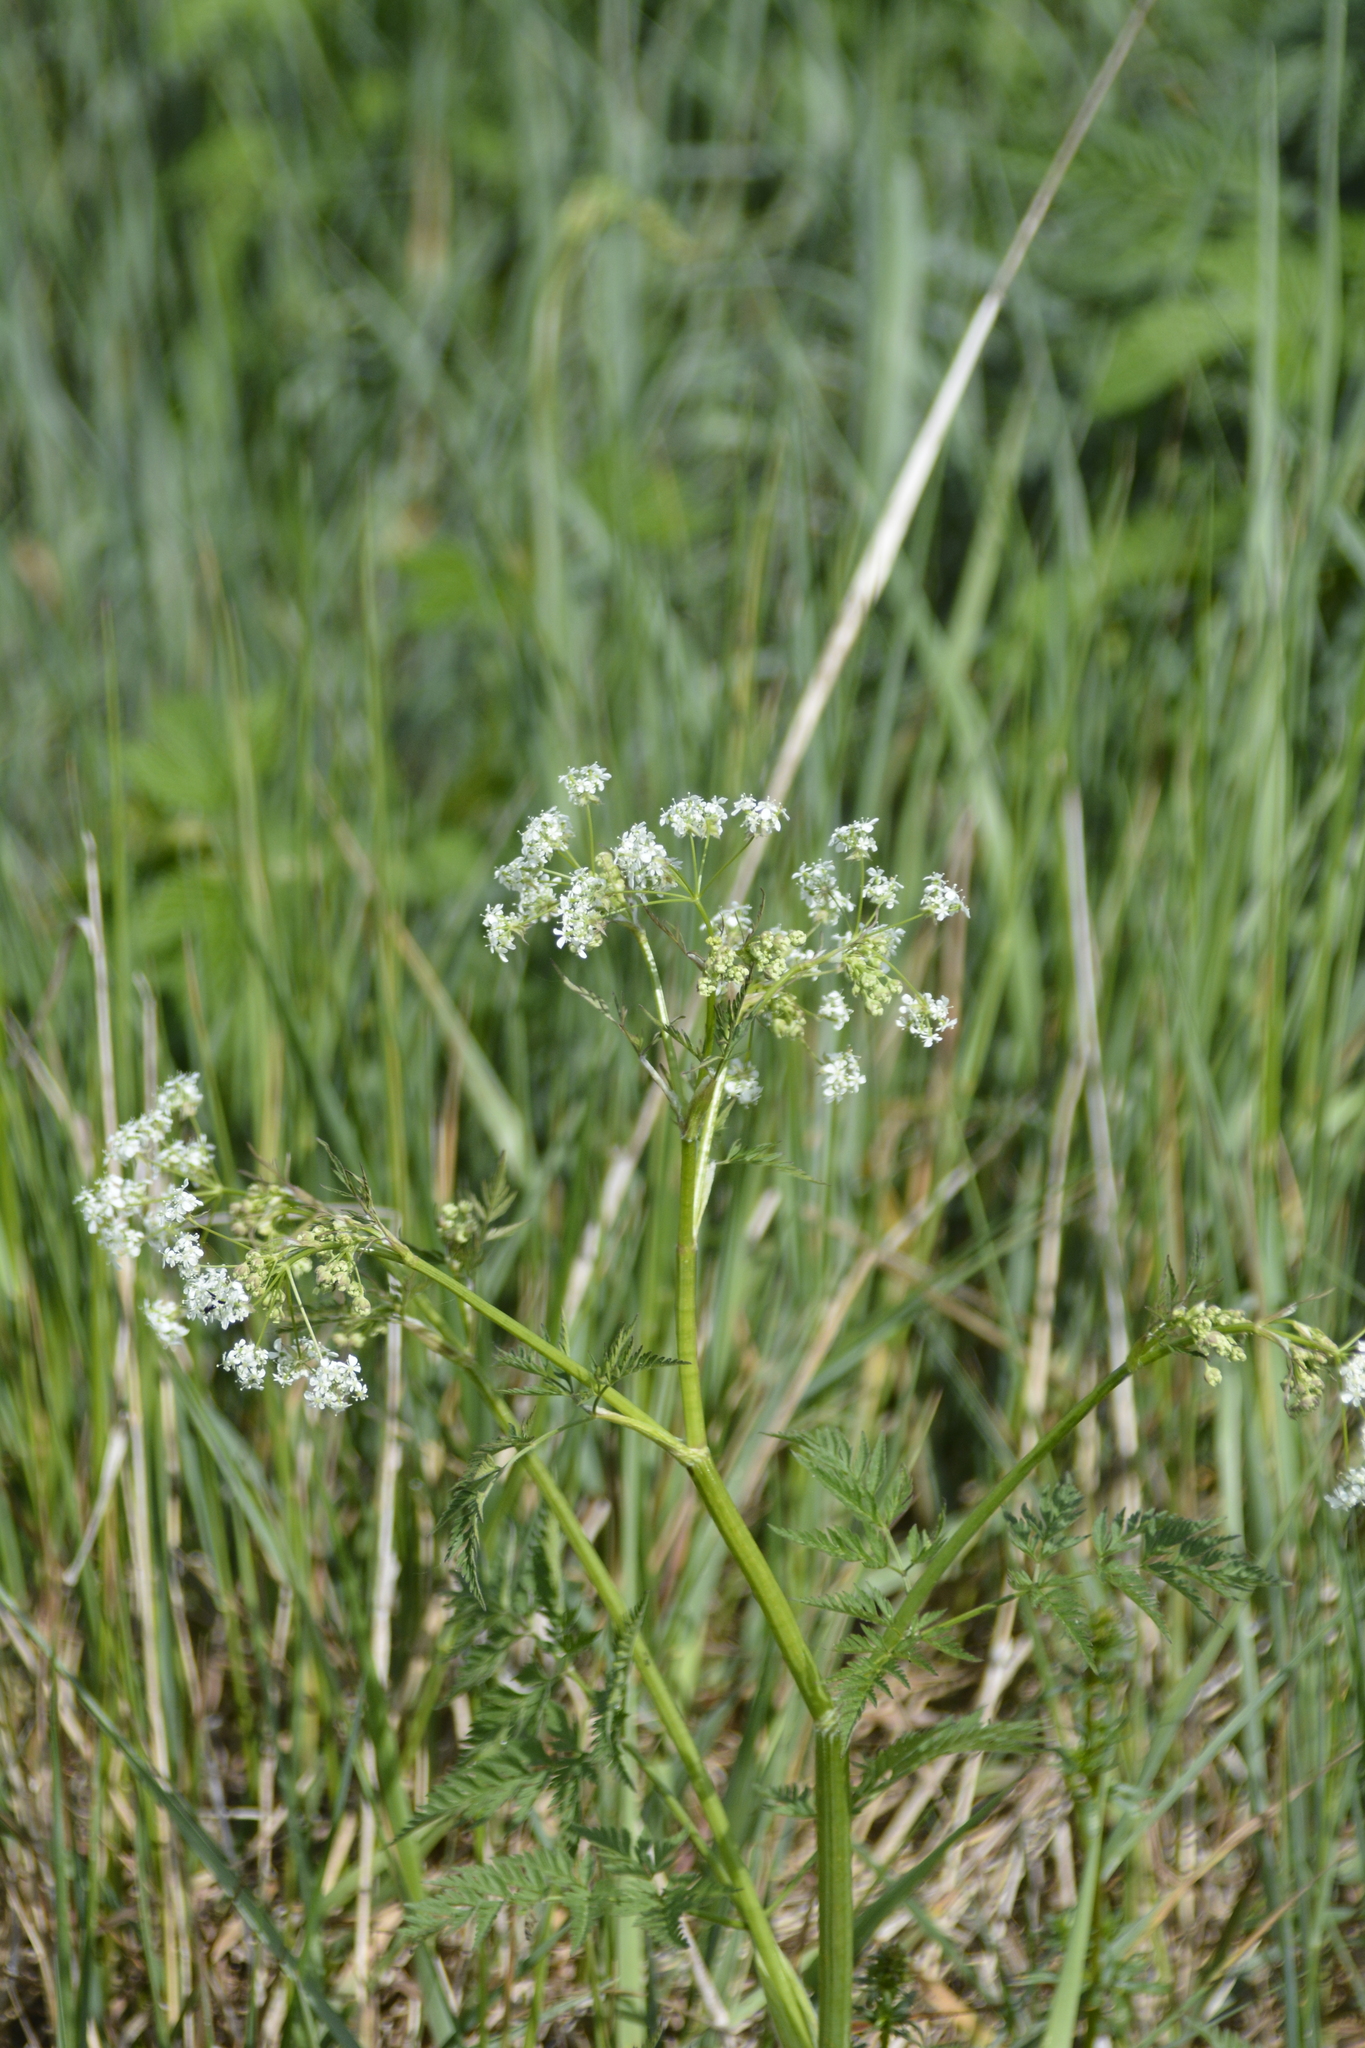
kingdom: Plantae
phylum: Tracheophyta
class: Magnoliopsida
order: Apiales
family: Apiaceae
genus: Anthriscus
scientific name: Anthriscus sylvestris
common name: Cow parsley
